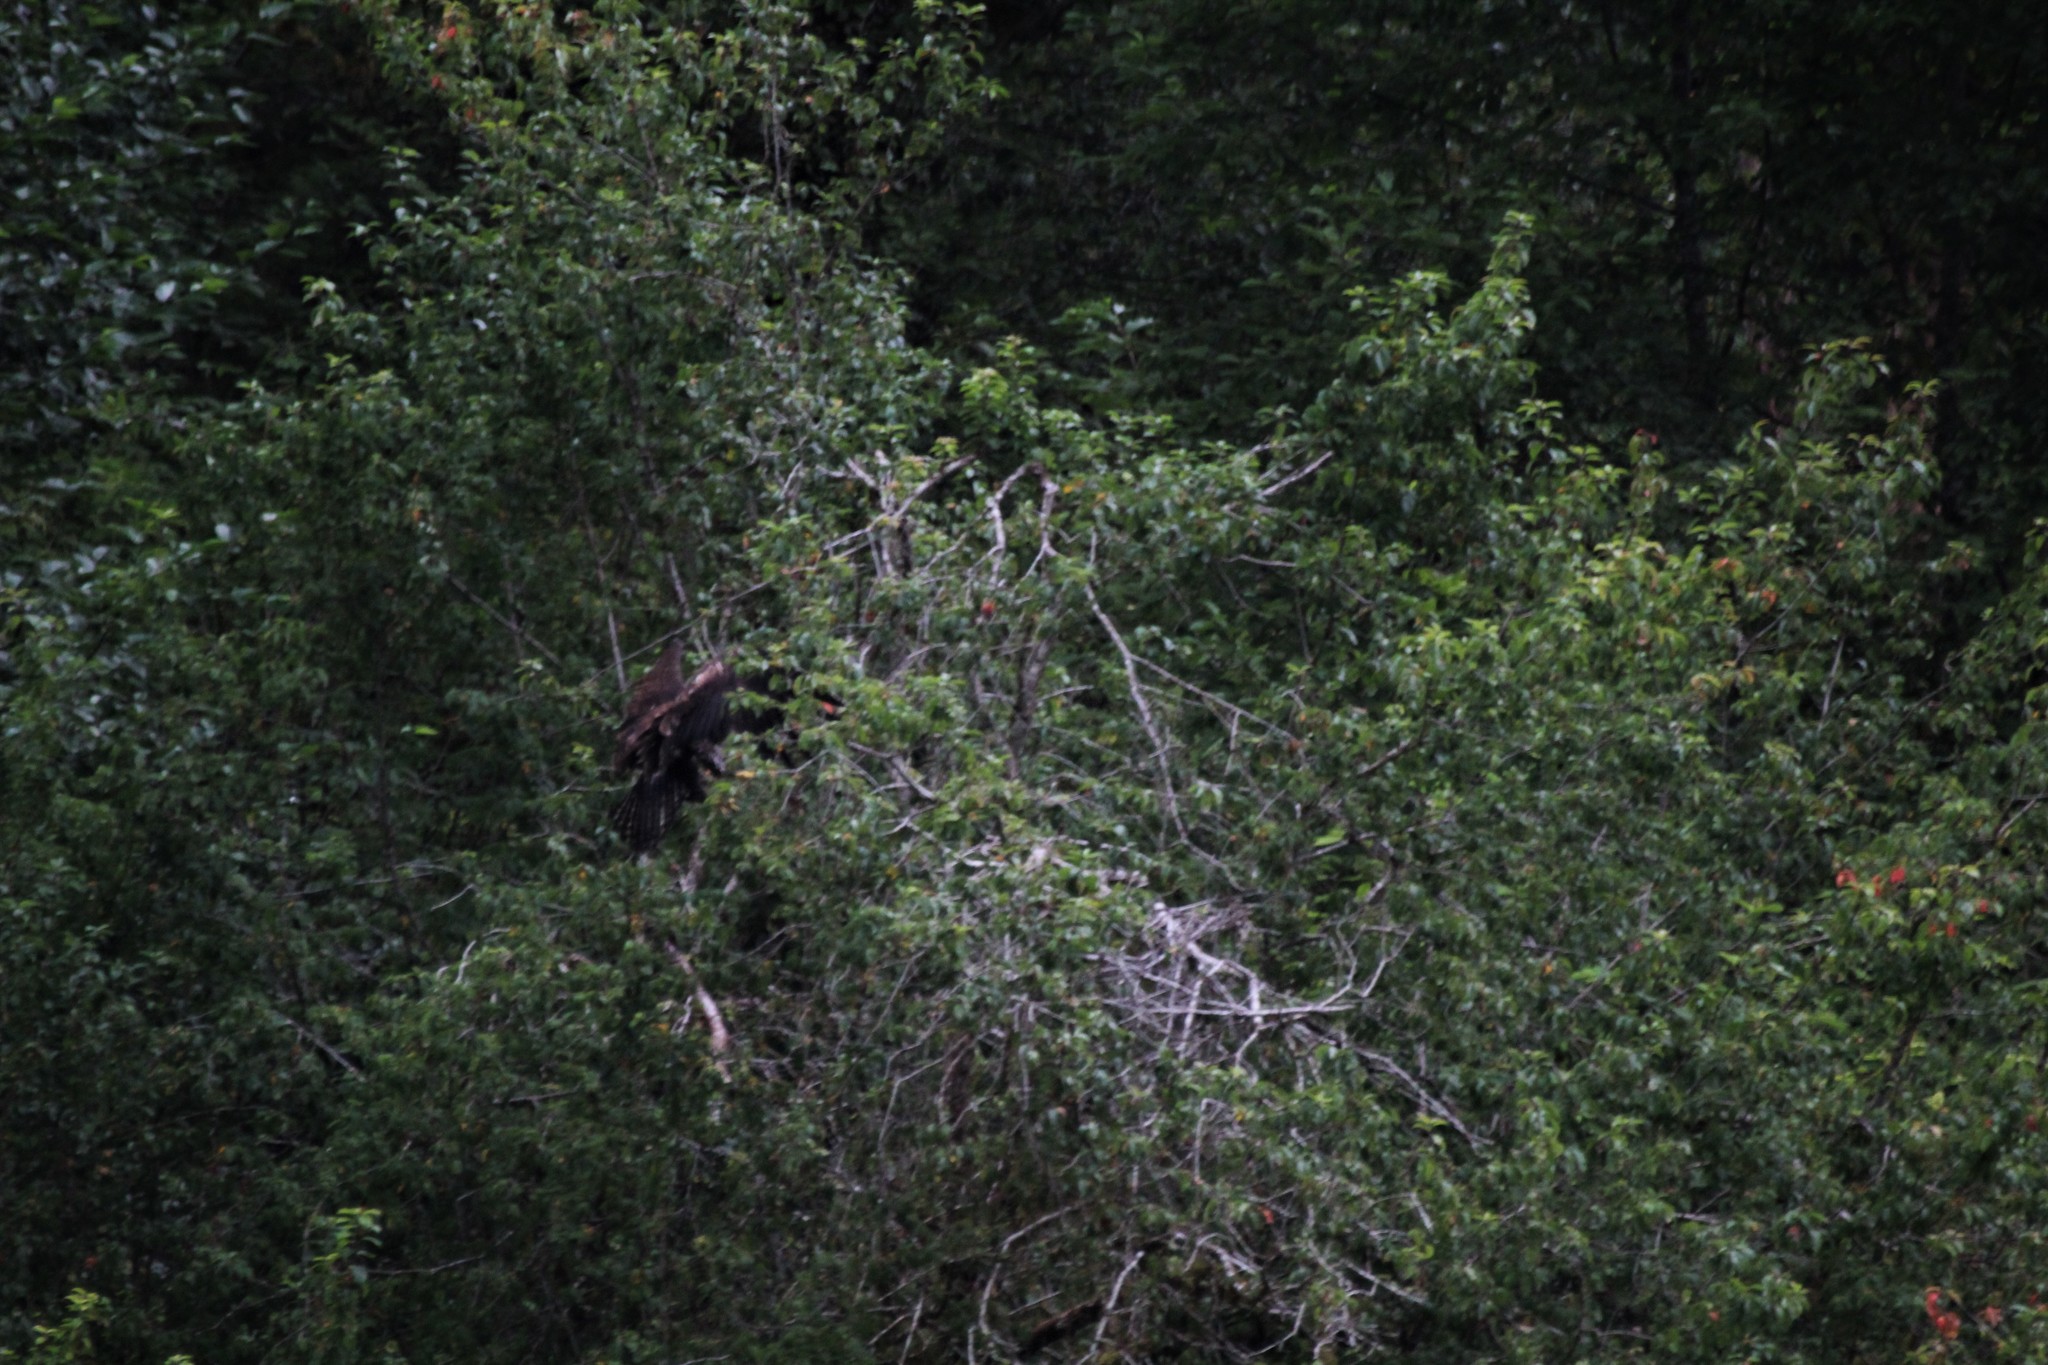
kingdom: Animalia
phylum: Chordata
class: Aves
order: Accipitriformes
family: Accipitridae
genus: Haliaeetus
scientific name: Haliaeetus leucocephalus
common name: Bald eagle
